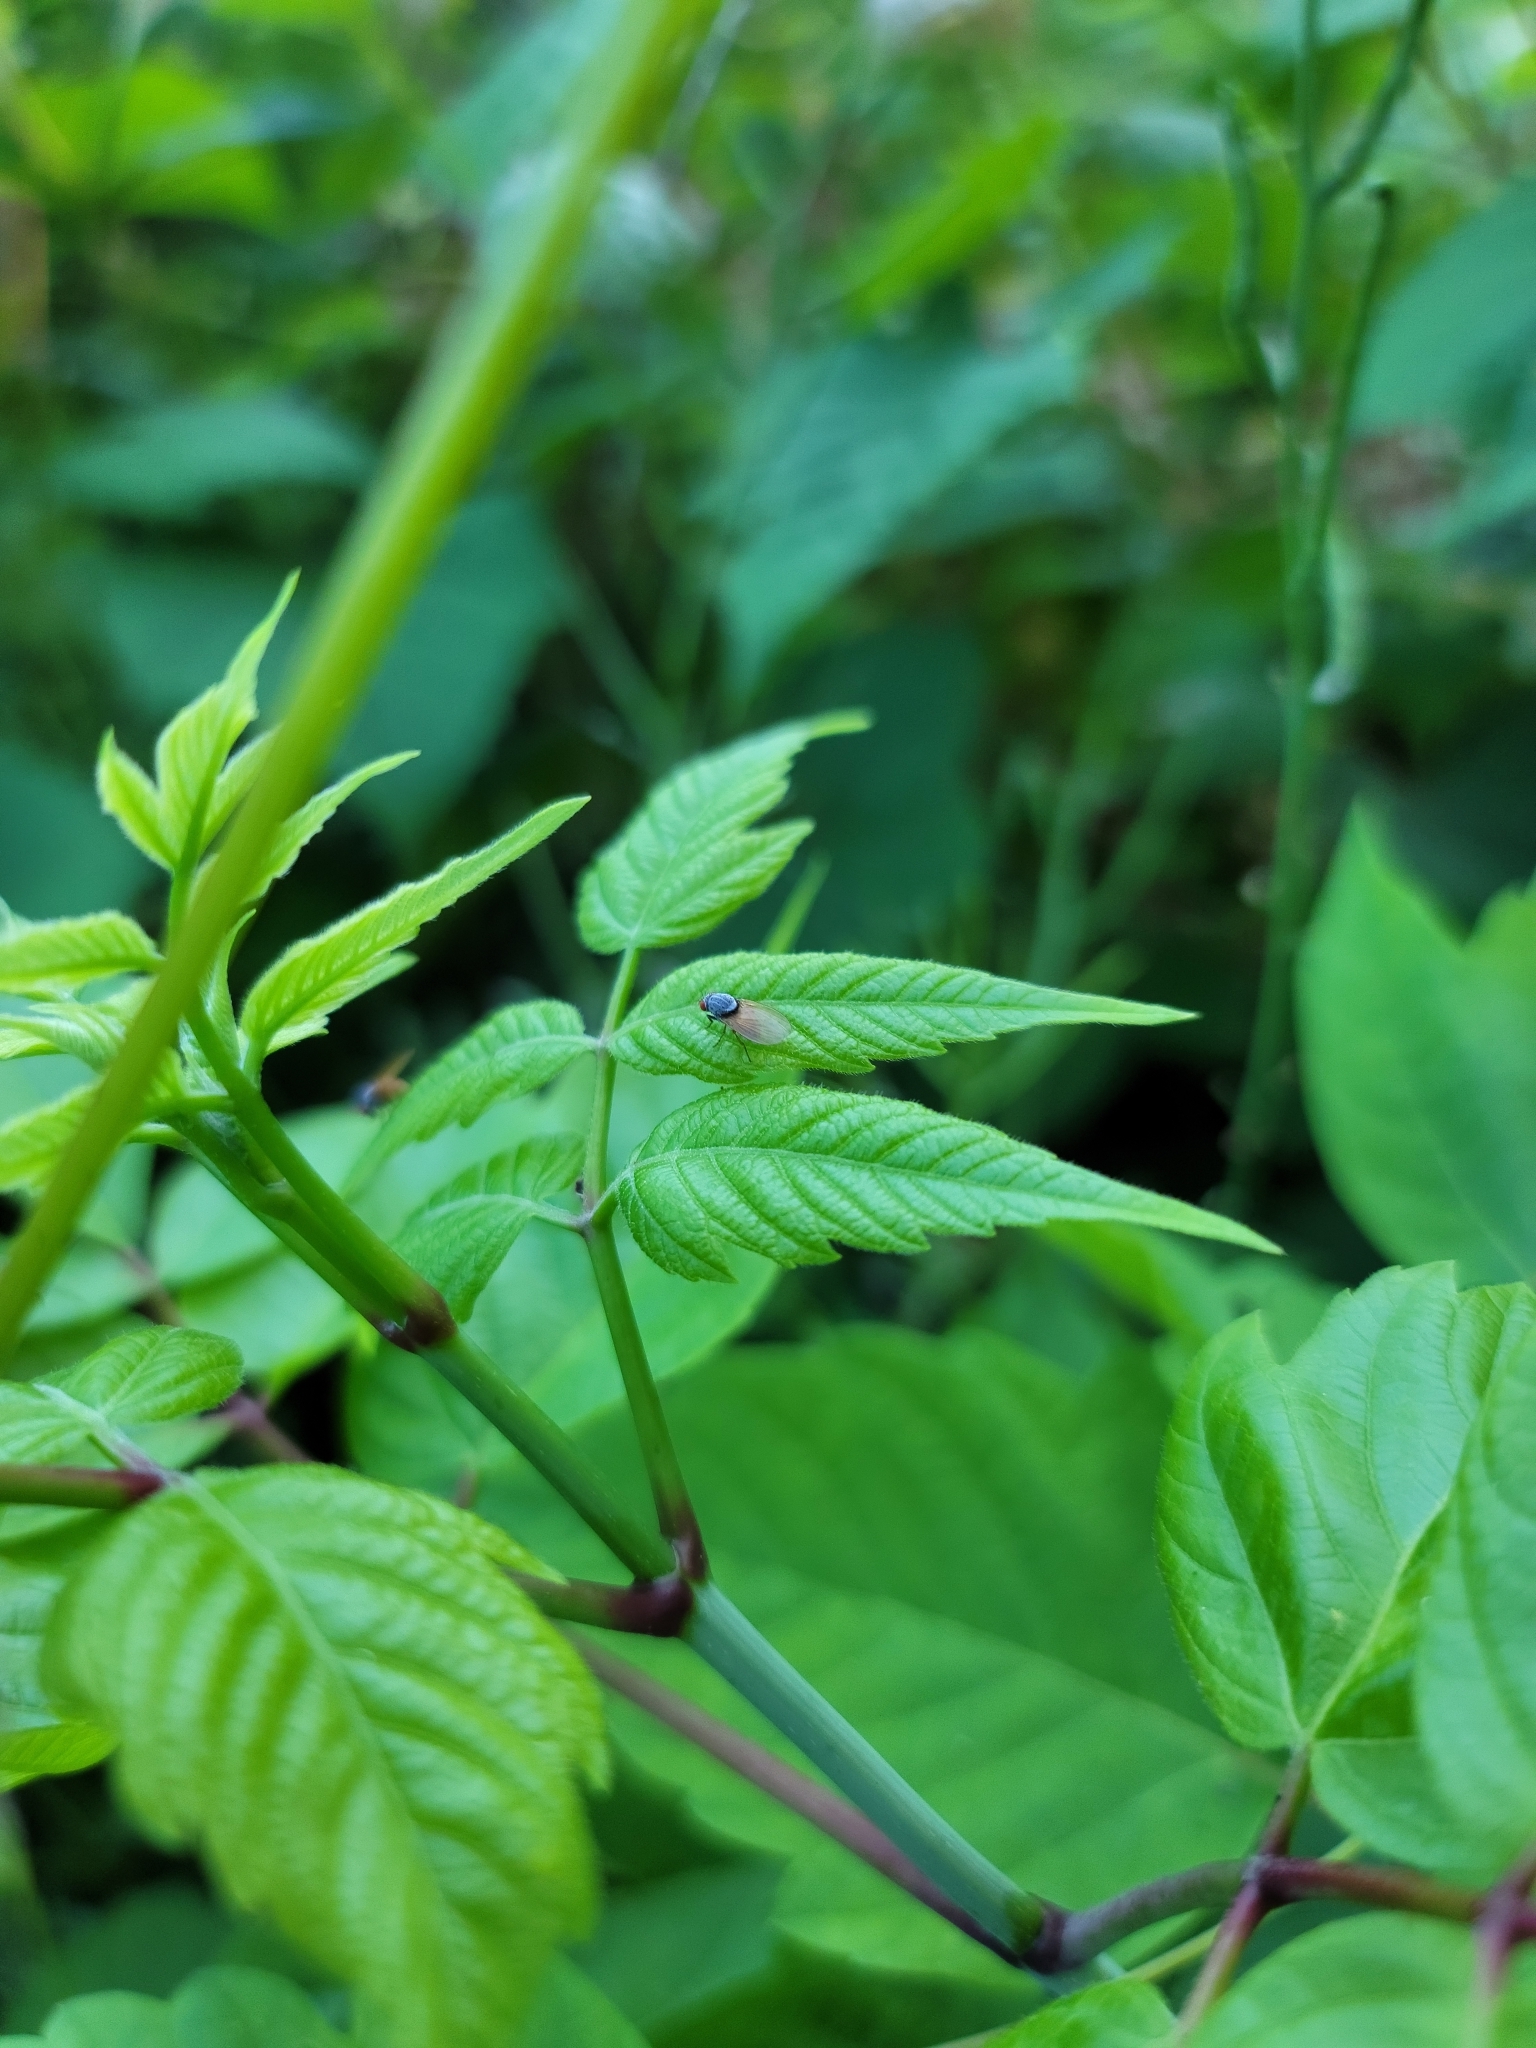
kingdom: Animalia
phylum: Arthropoda
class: Insecta
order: Diptera
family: Lauxaniidae
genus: Minettia
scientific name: Minettia lupulina
